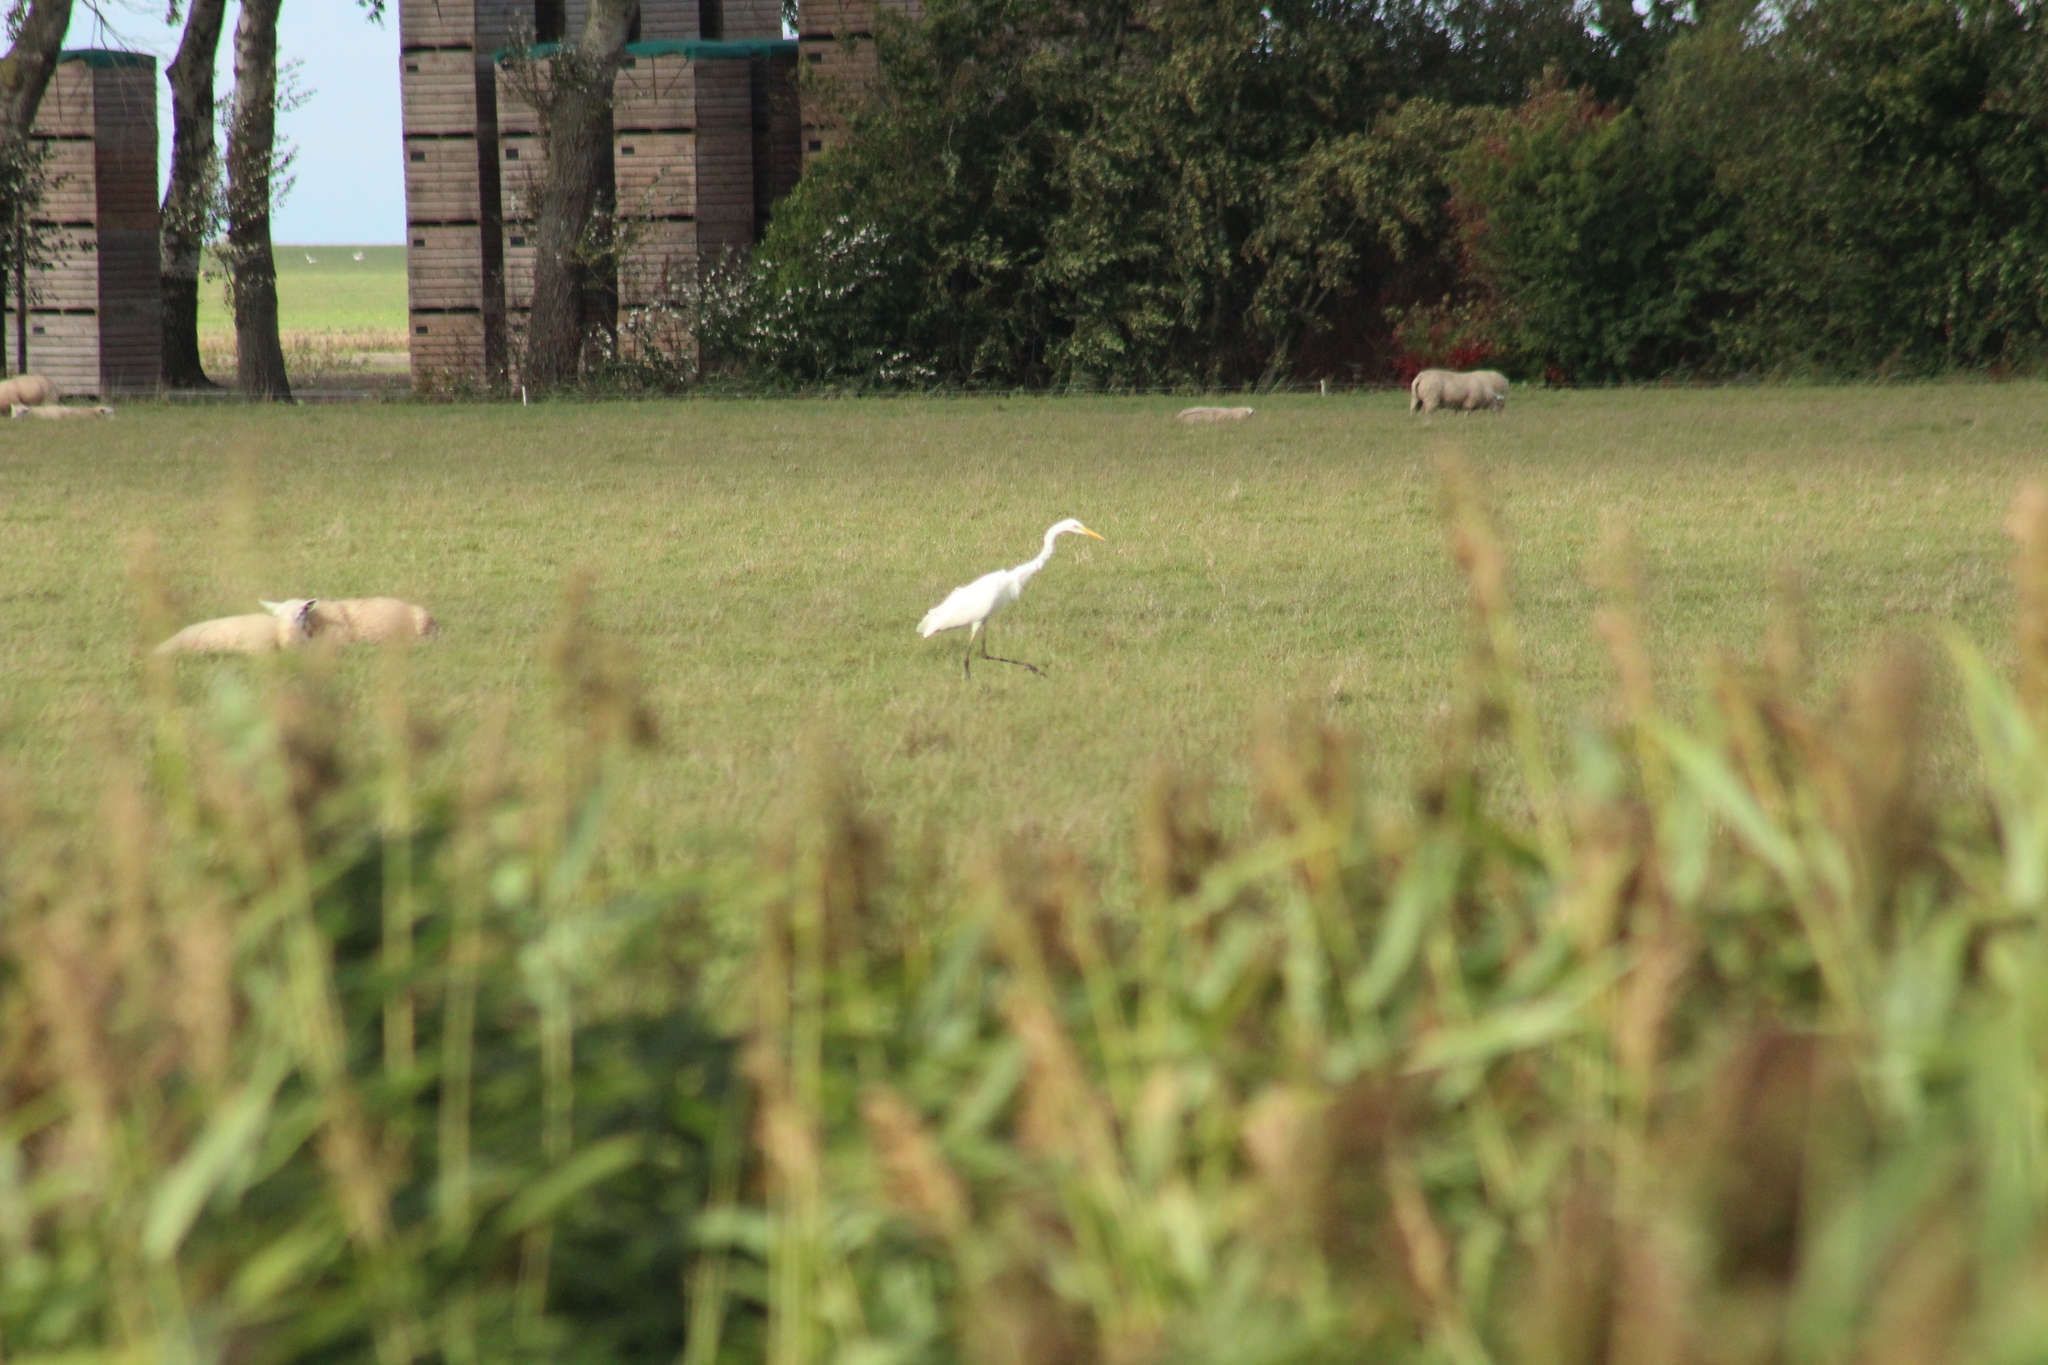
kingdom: Animalia
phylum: Chordata
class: Aves
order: Pelecaniformes
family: Ardeidae
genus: Ardea
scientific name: Ardea alba
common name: Great egret
